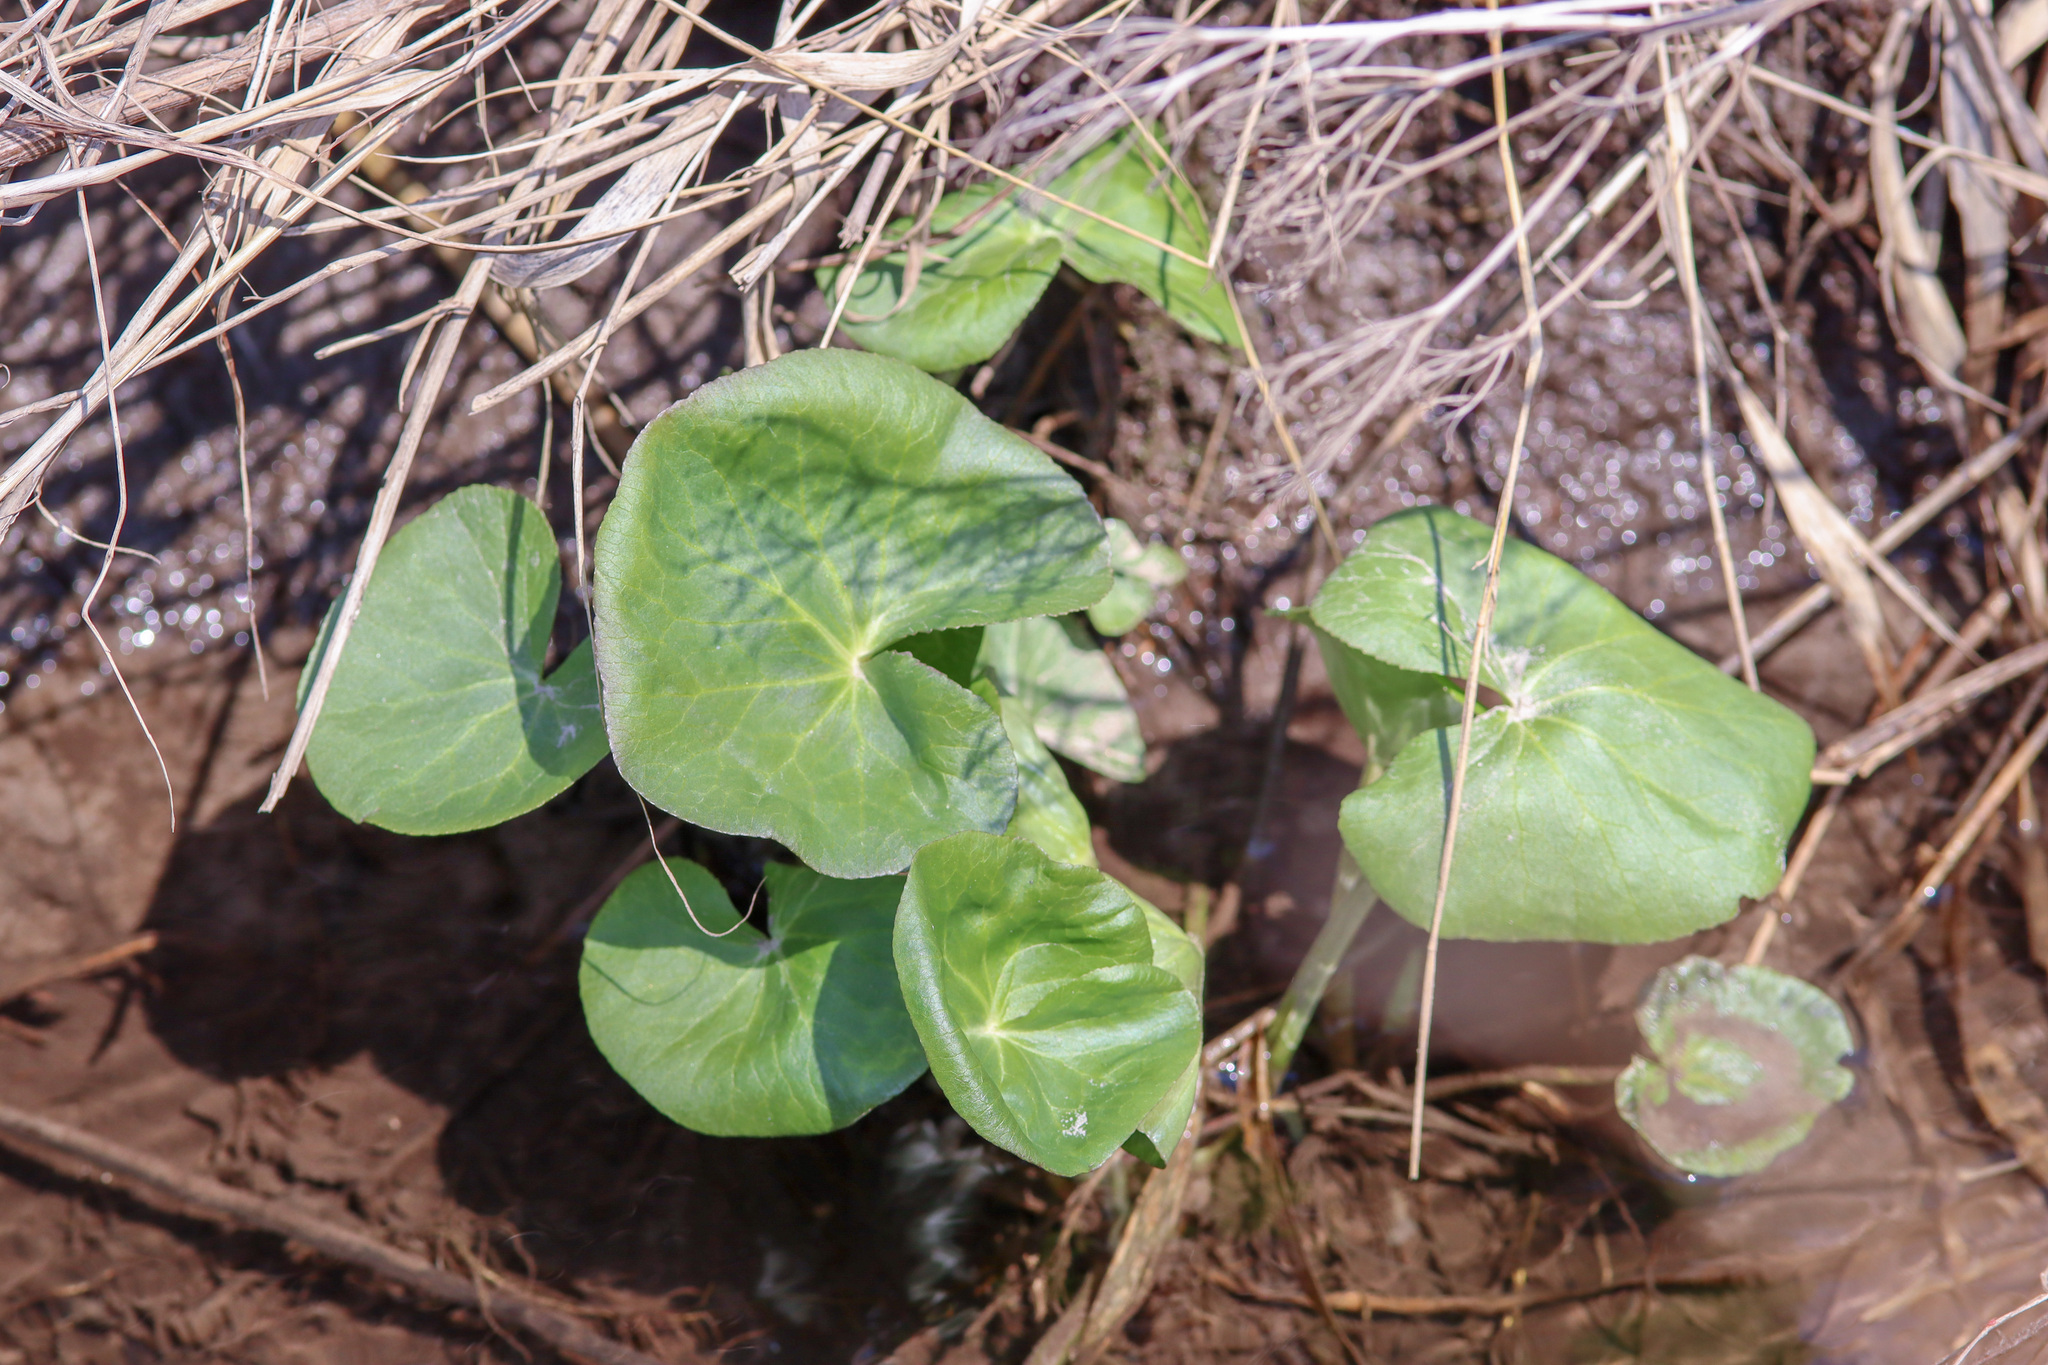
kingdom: Plantae
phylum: Tracheophyta
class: Magnoliopsida
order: Ranunculales
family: Ranunculaceae
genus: Caltha
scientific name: Caltha palustris
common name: Marsh marigold
